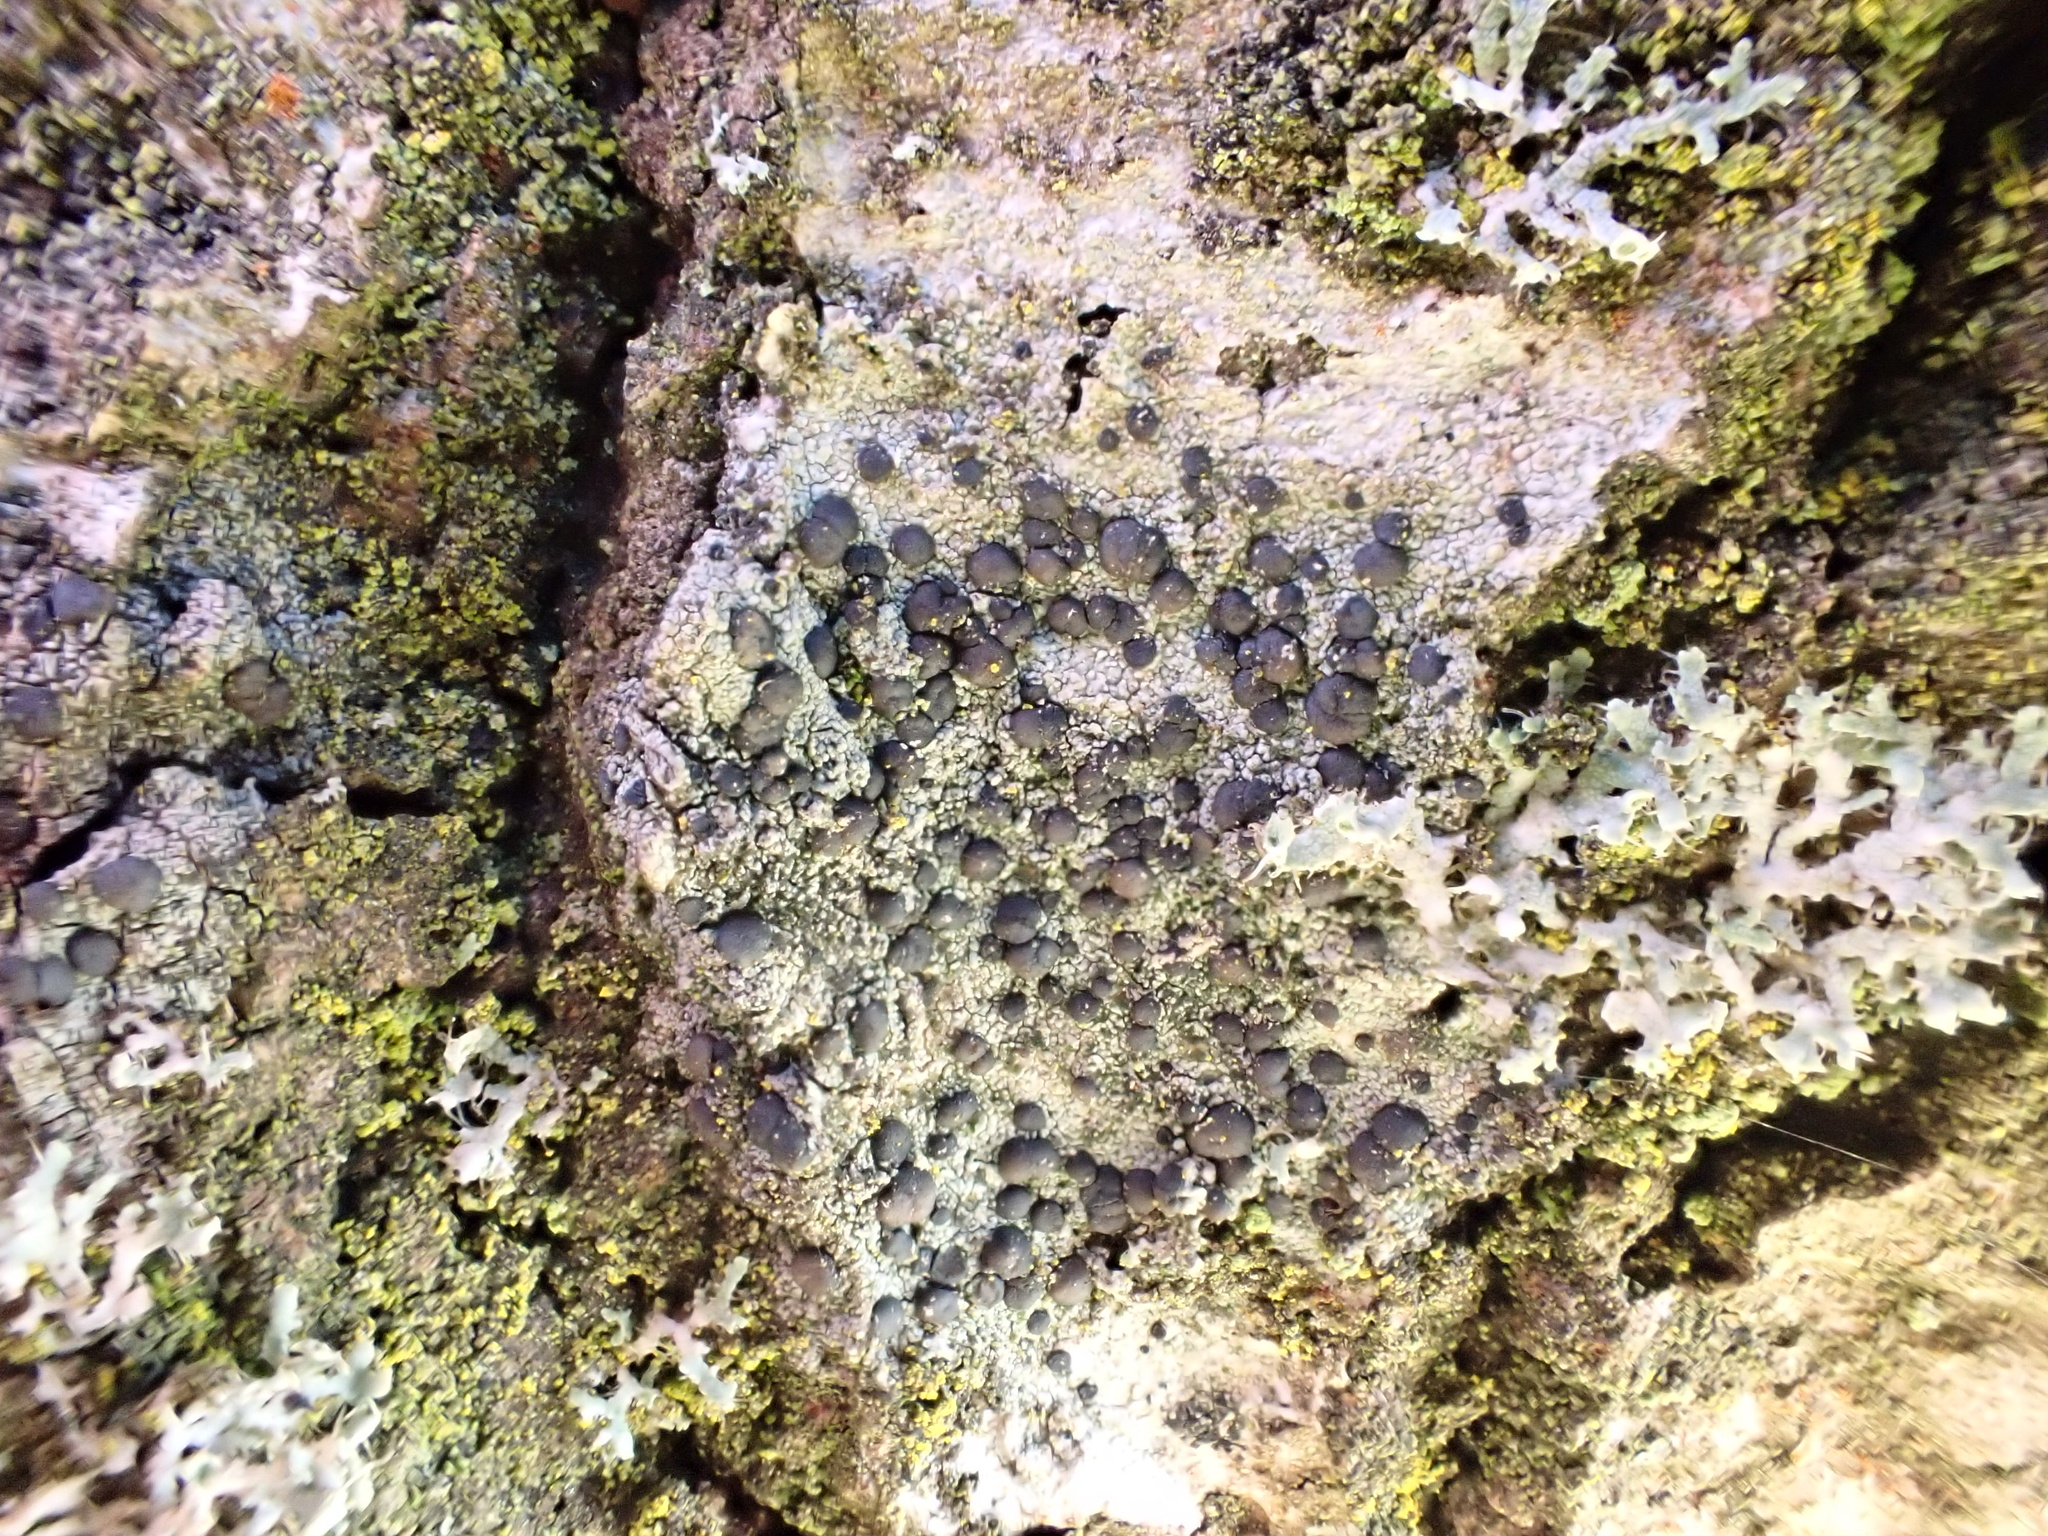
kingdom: Fungi
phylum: Ascomycota
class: Lecanoromycetes
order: Lecanorales
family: Lecanoraceae
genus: Lecidella
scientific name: Lecidella elaeochroma
